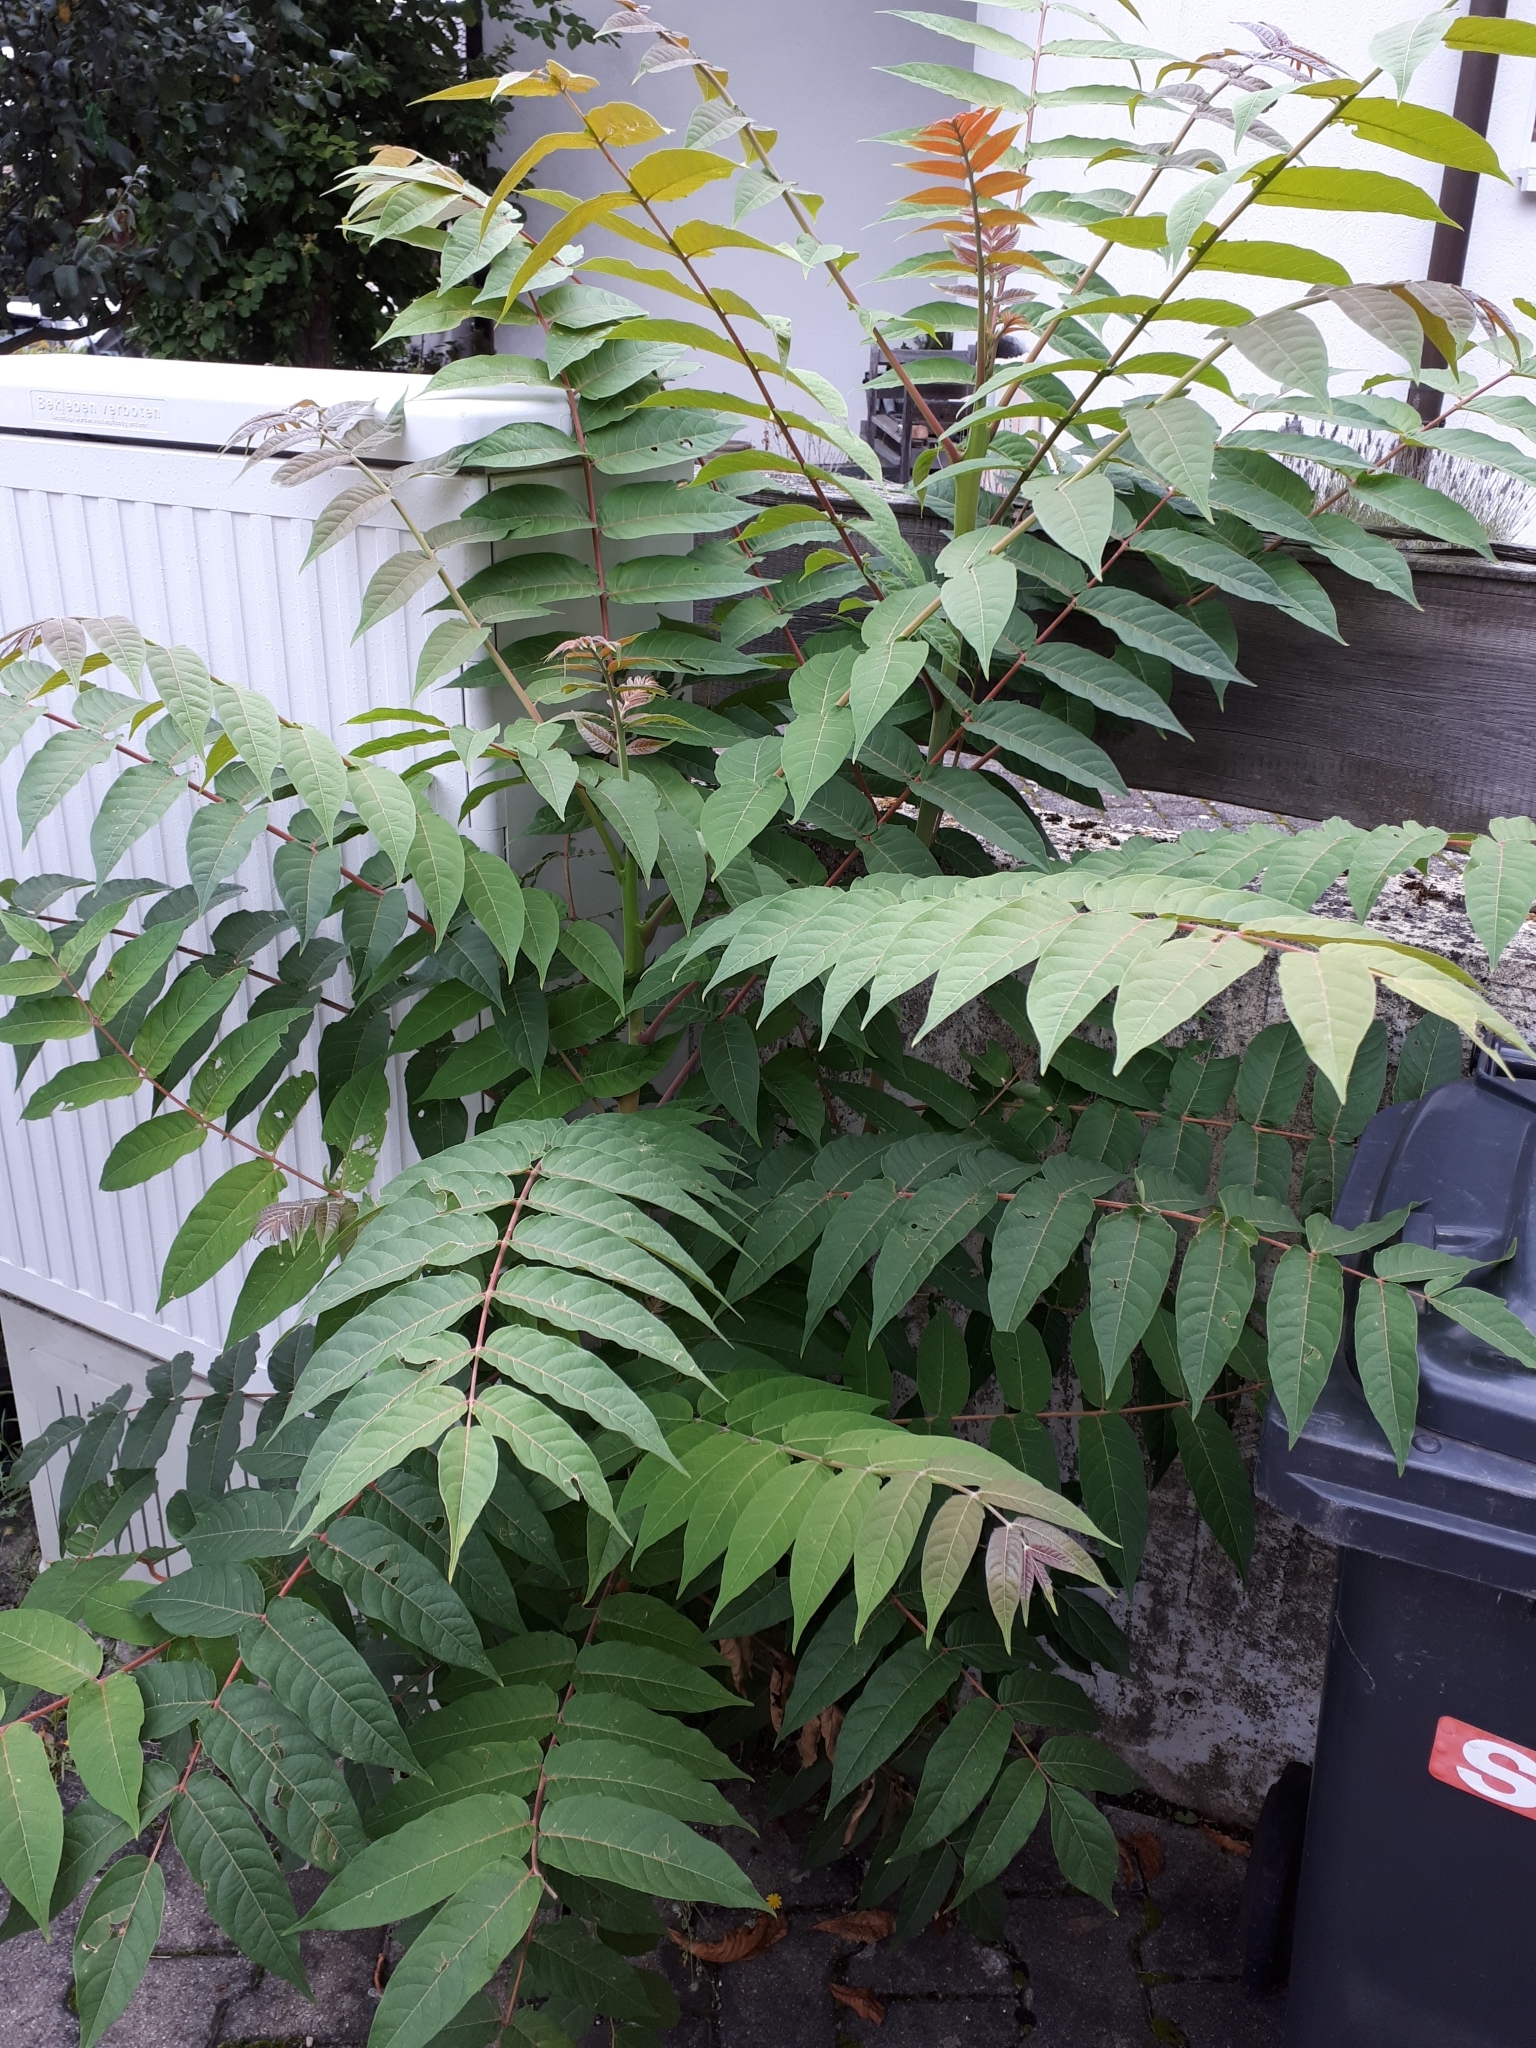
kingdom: Plantae
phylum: Tracheophyta
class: Magnoliopsida
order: Sapindales
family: Simaroubaceae
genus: Ailanthus
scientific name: Ailanthus altissima
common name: Tree-of-heaven
